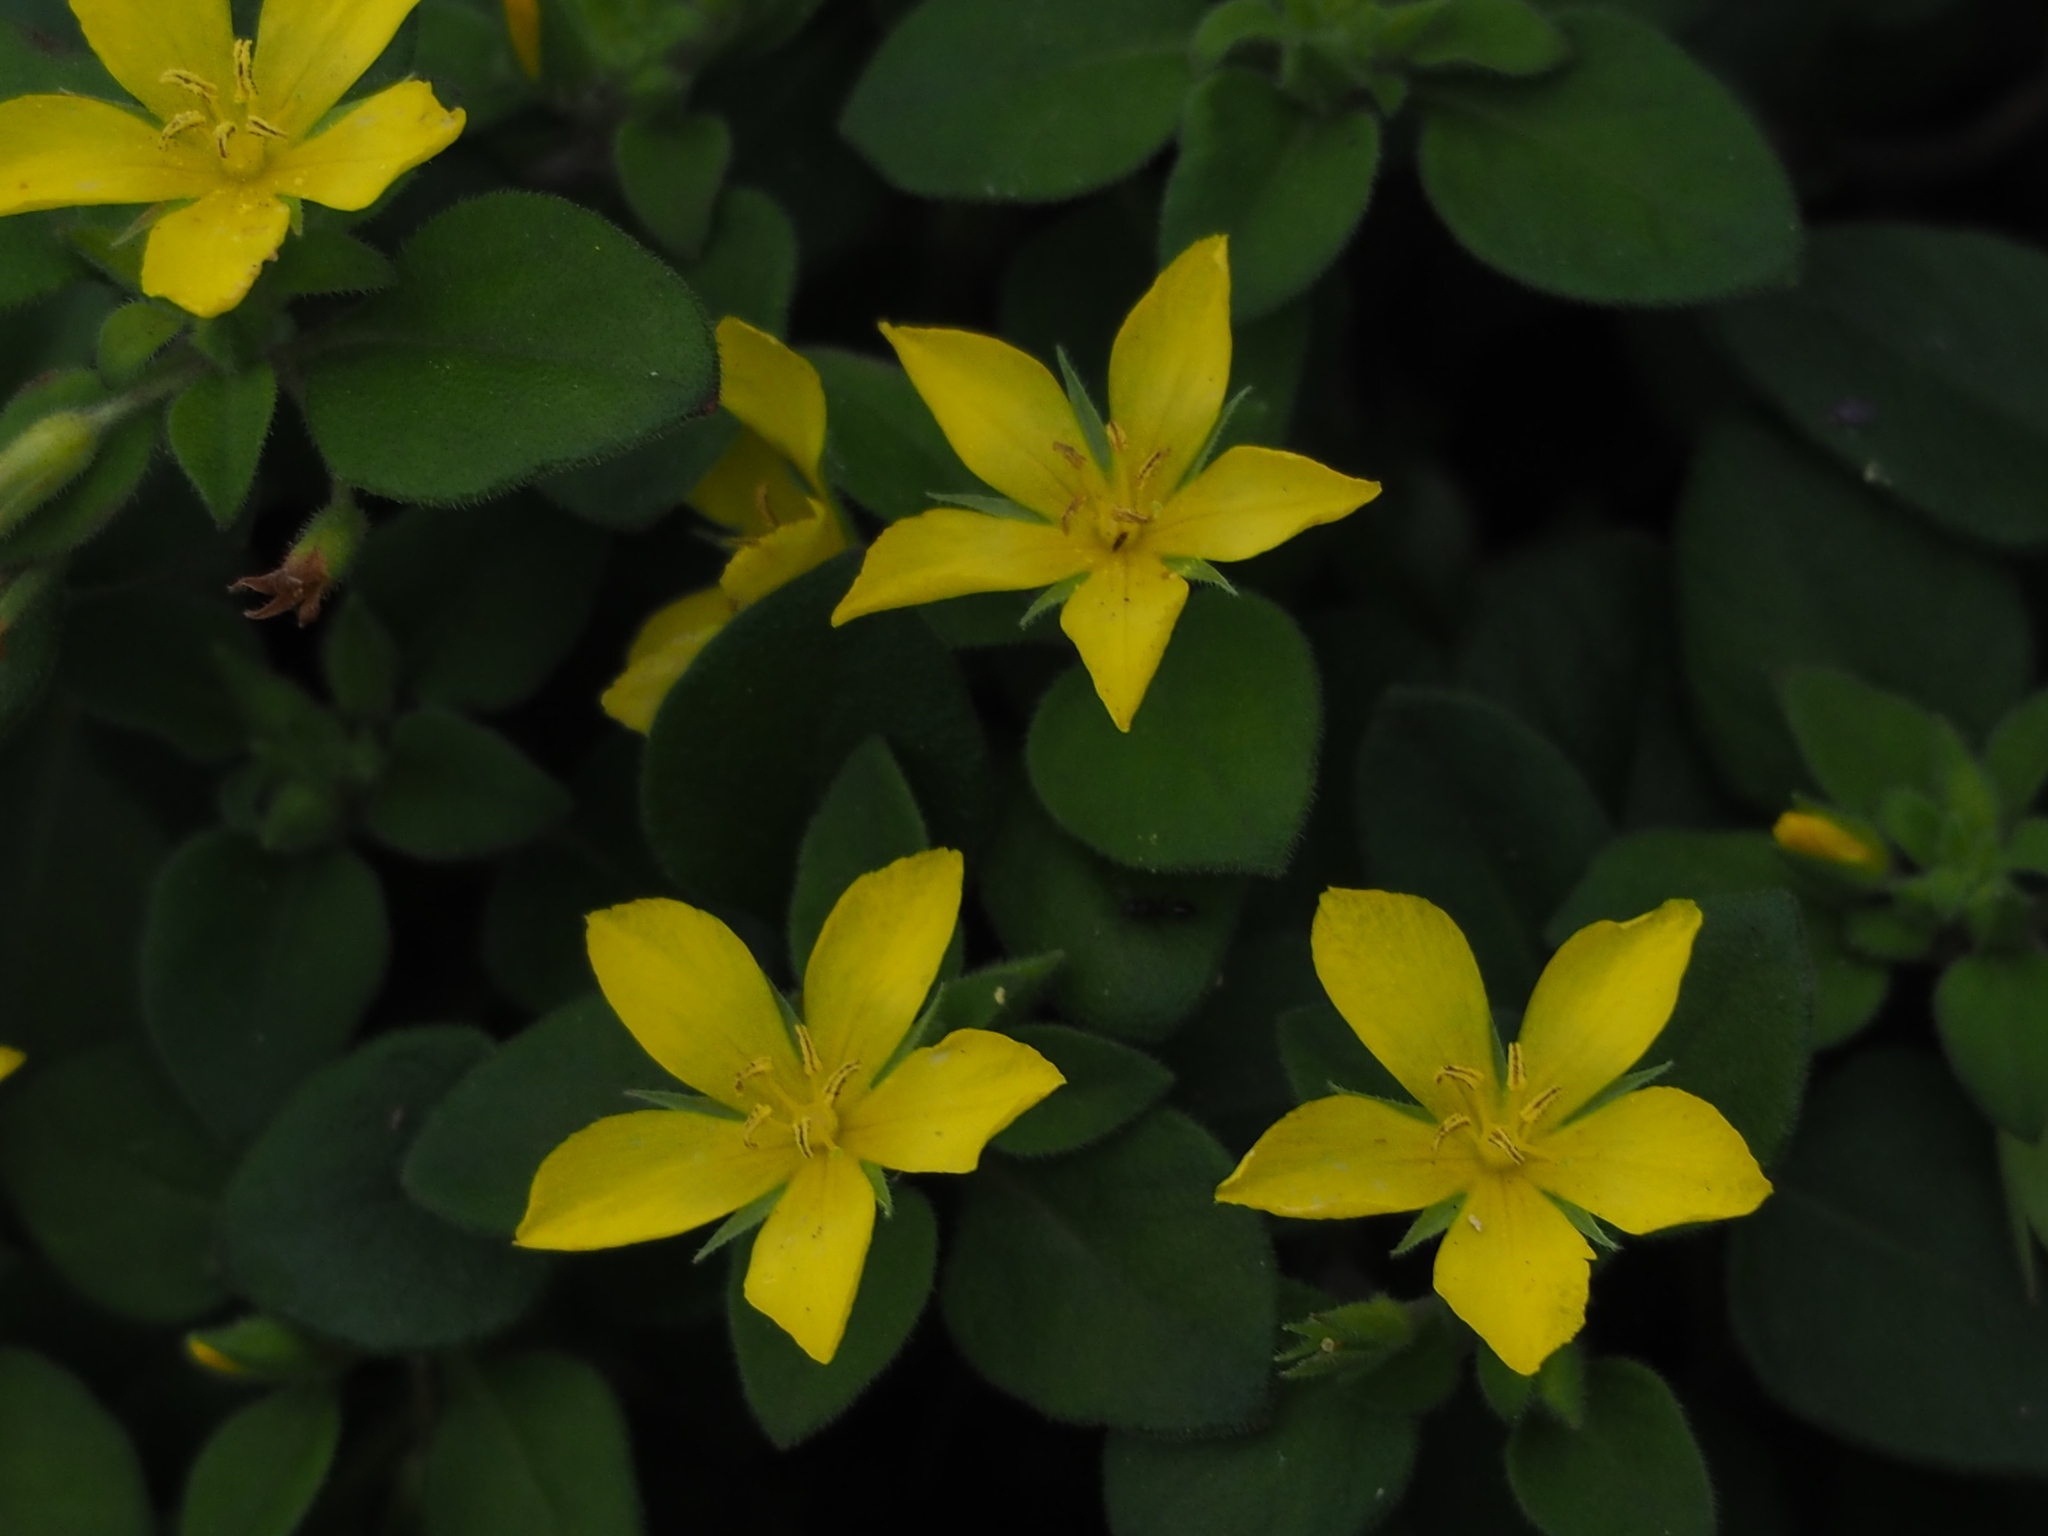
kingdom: Plantae
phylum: Tracheophyta
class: Magnoliopsida
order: Ericales
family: Primulaceae
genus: Lysimachia
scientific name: Lysimachia remota
